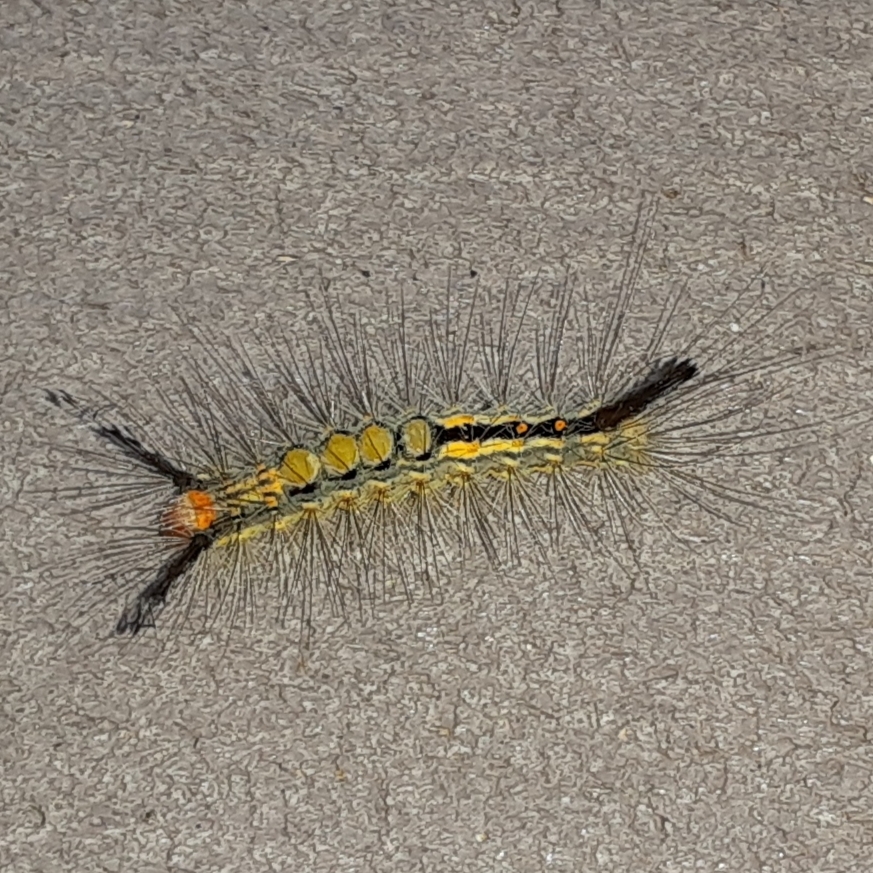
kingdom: Animalia
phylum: Arthropoda
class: Insecta
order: Lepidoptera
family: Erebidae
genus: Orgyia
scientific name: Orgyia detrita
